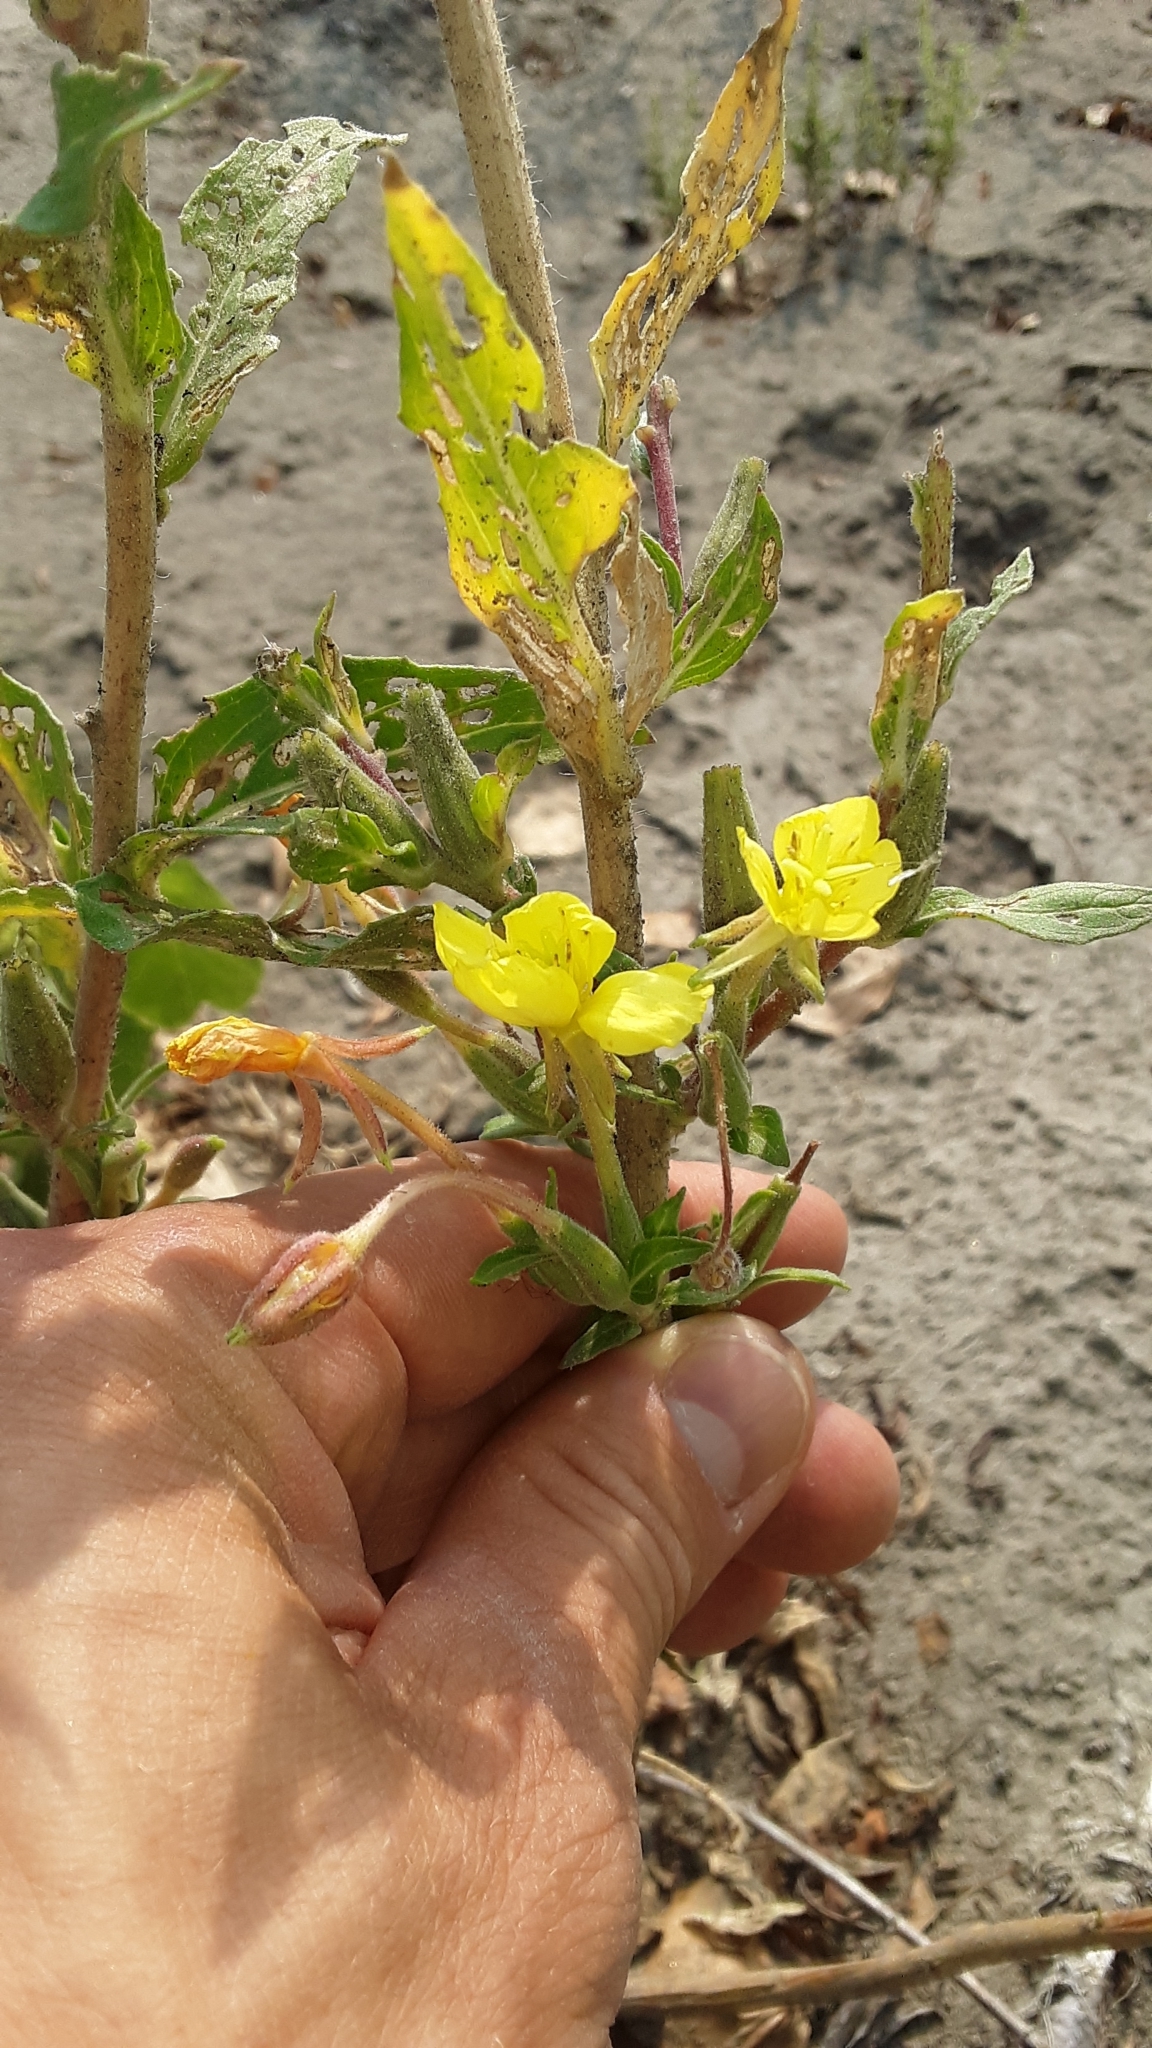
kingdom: Plantae
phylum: Tracheophyta
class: Magnoliopsida
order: Myrtales
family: Onagraceae
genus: Oenothera
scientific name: Oenothera villosa
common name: Hairy evening-primrose
